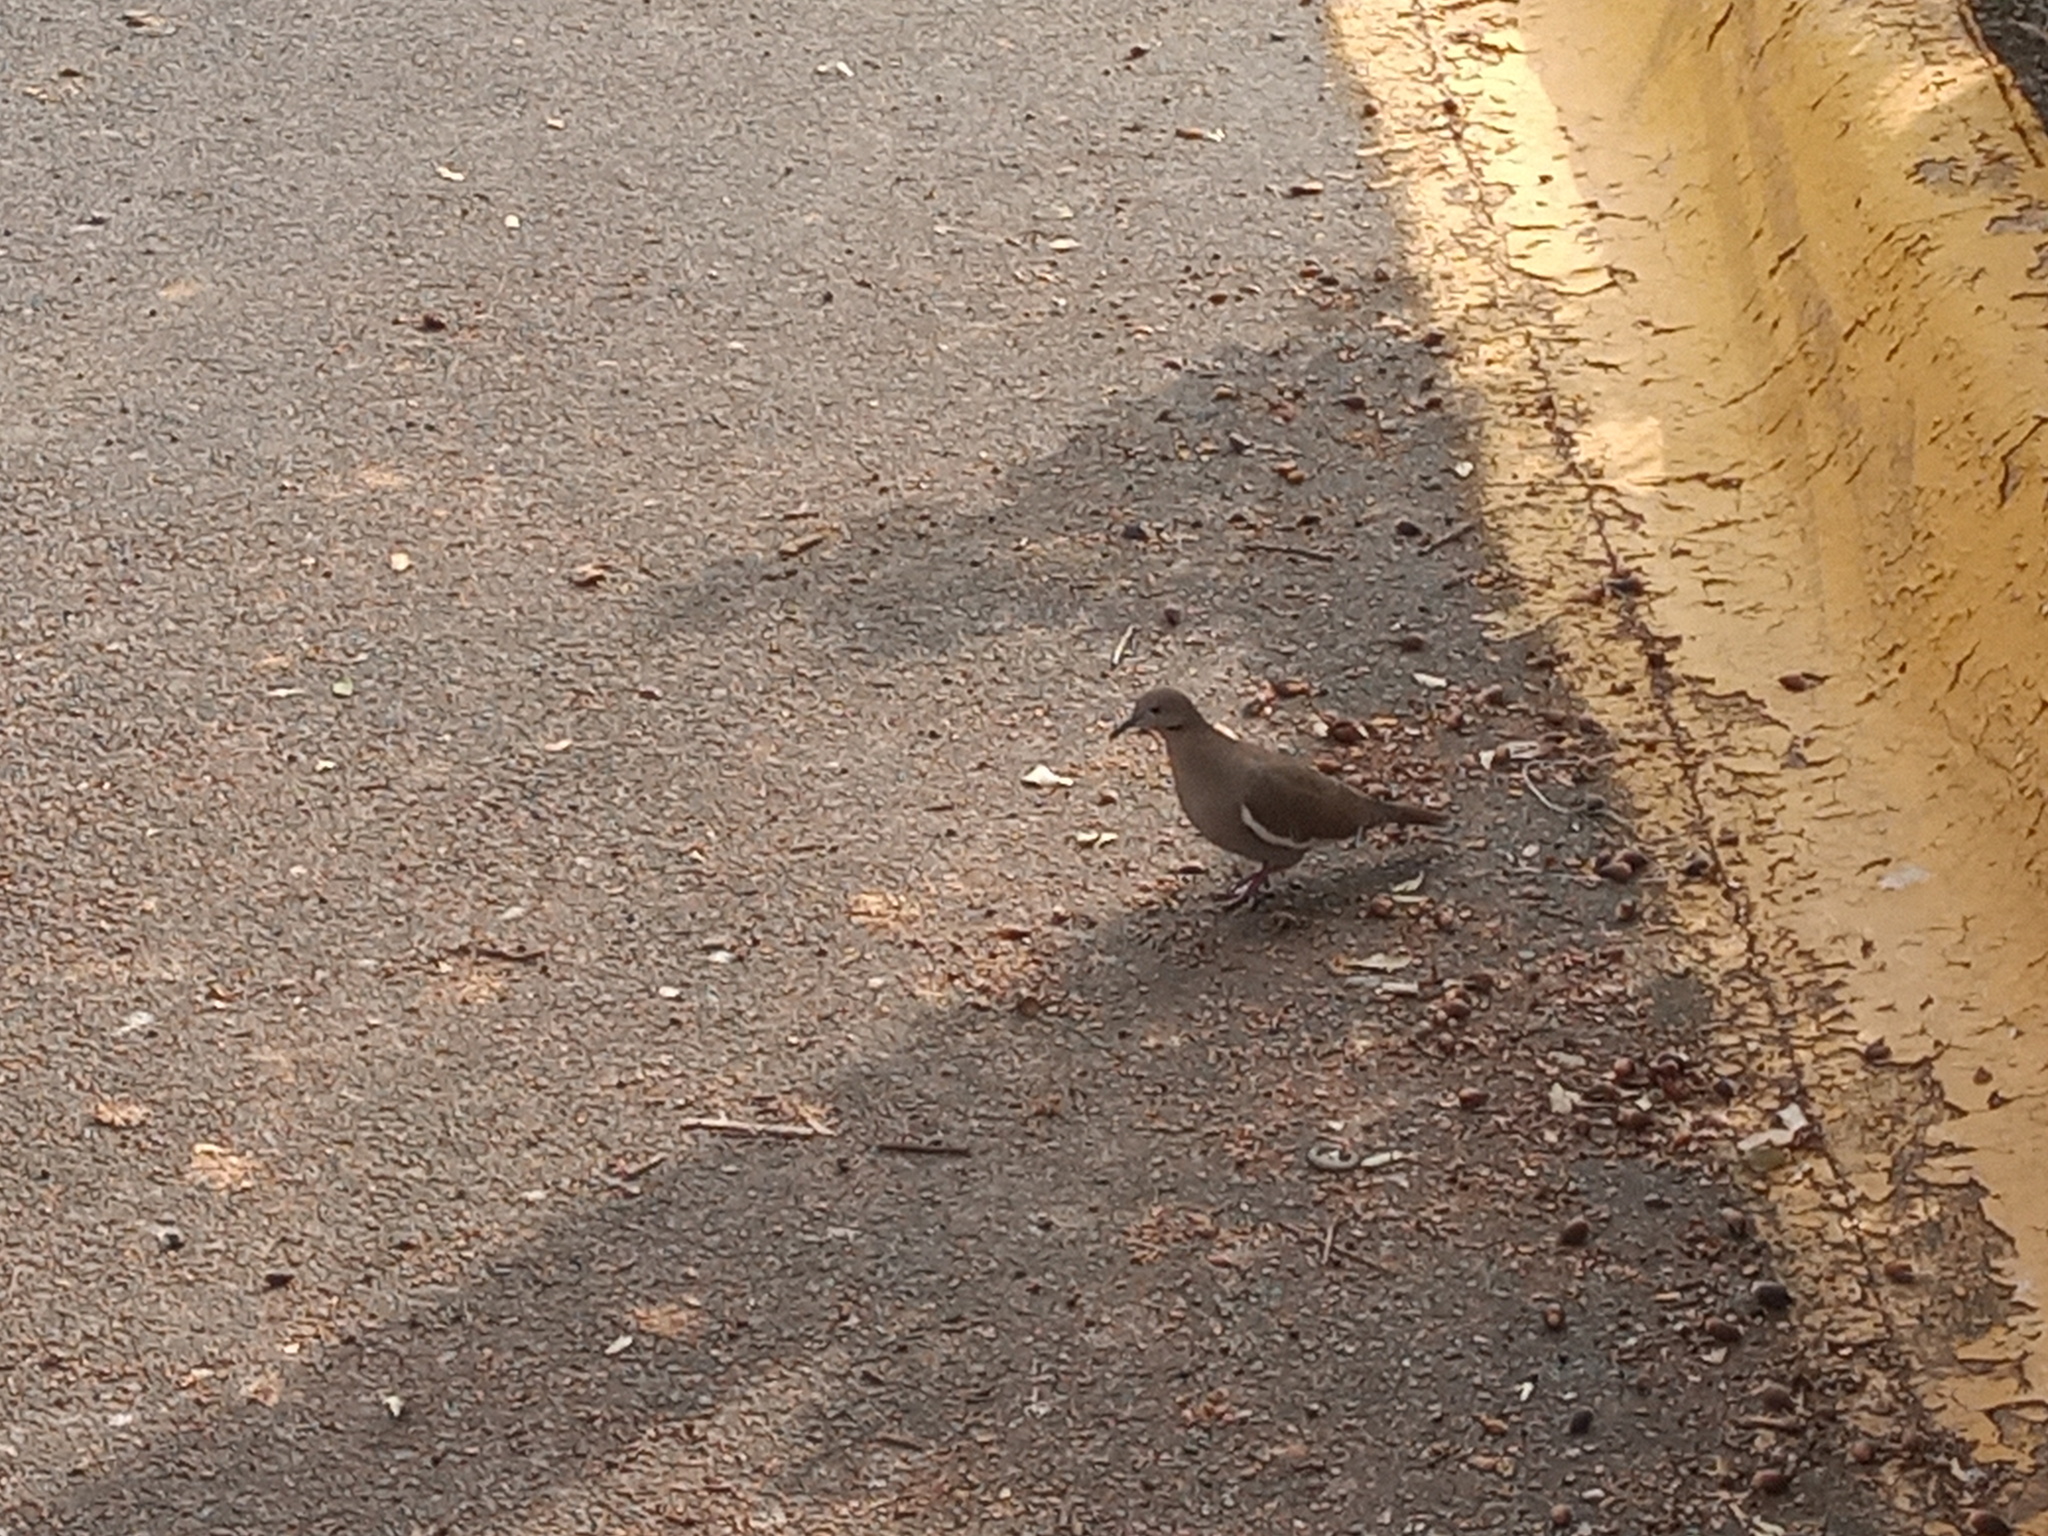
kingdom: Animalia
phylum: Chordata
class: Aves
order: Columbiformes
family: Columbidae
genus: Zenaida
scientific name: Zenaida asiatica
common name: White-winged dove
